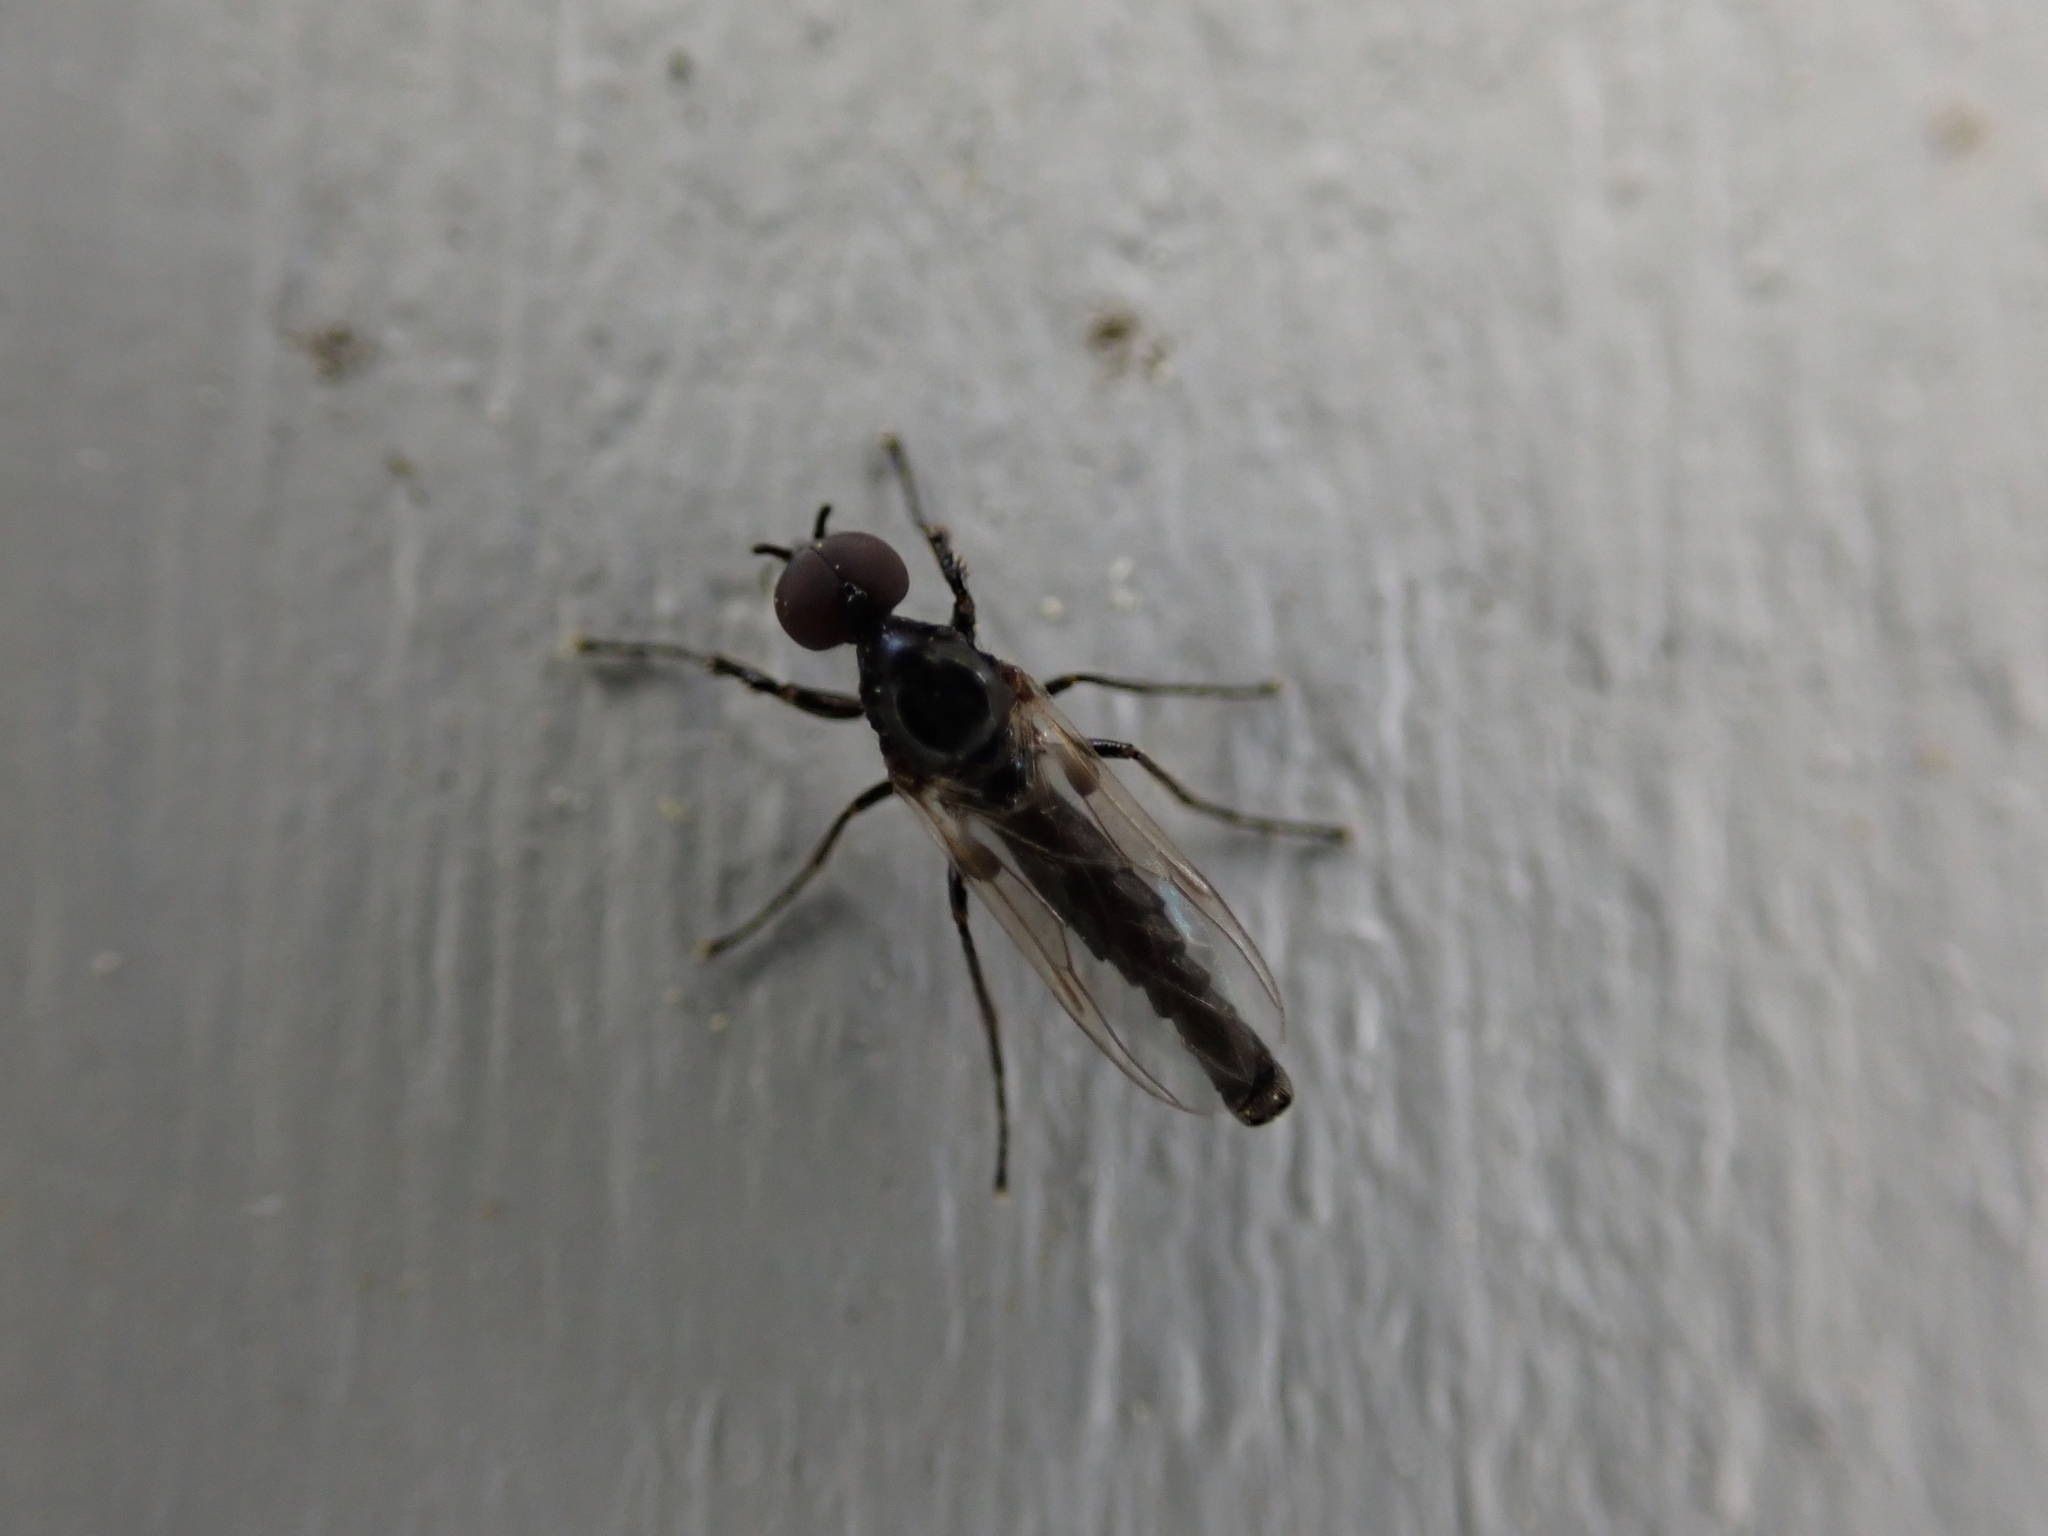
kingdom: Animalia
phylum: Arthropoda
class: Insecta
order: Diptera
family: Bibionidae
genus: Dilophus
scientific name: Dilophus
